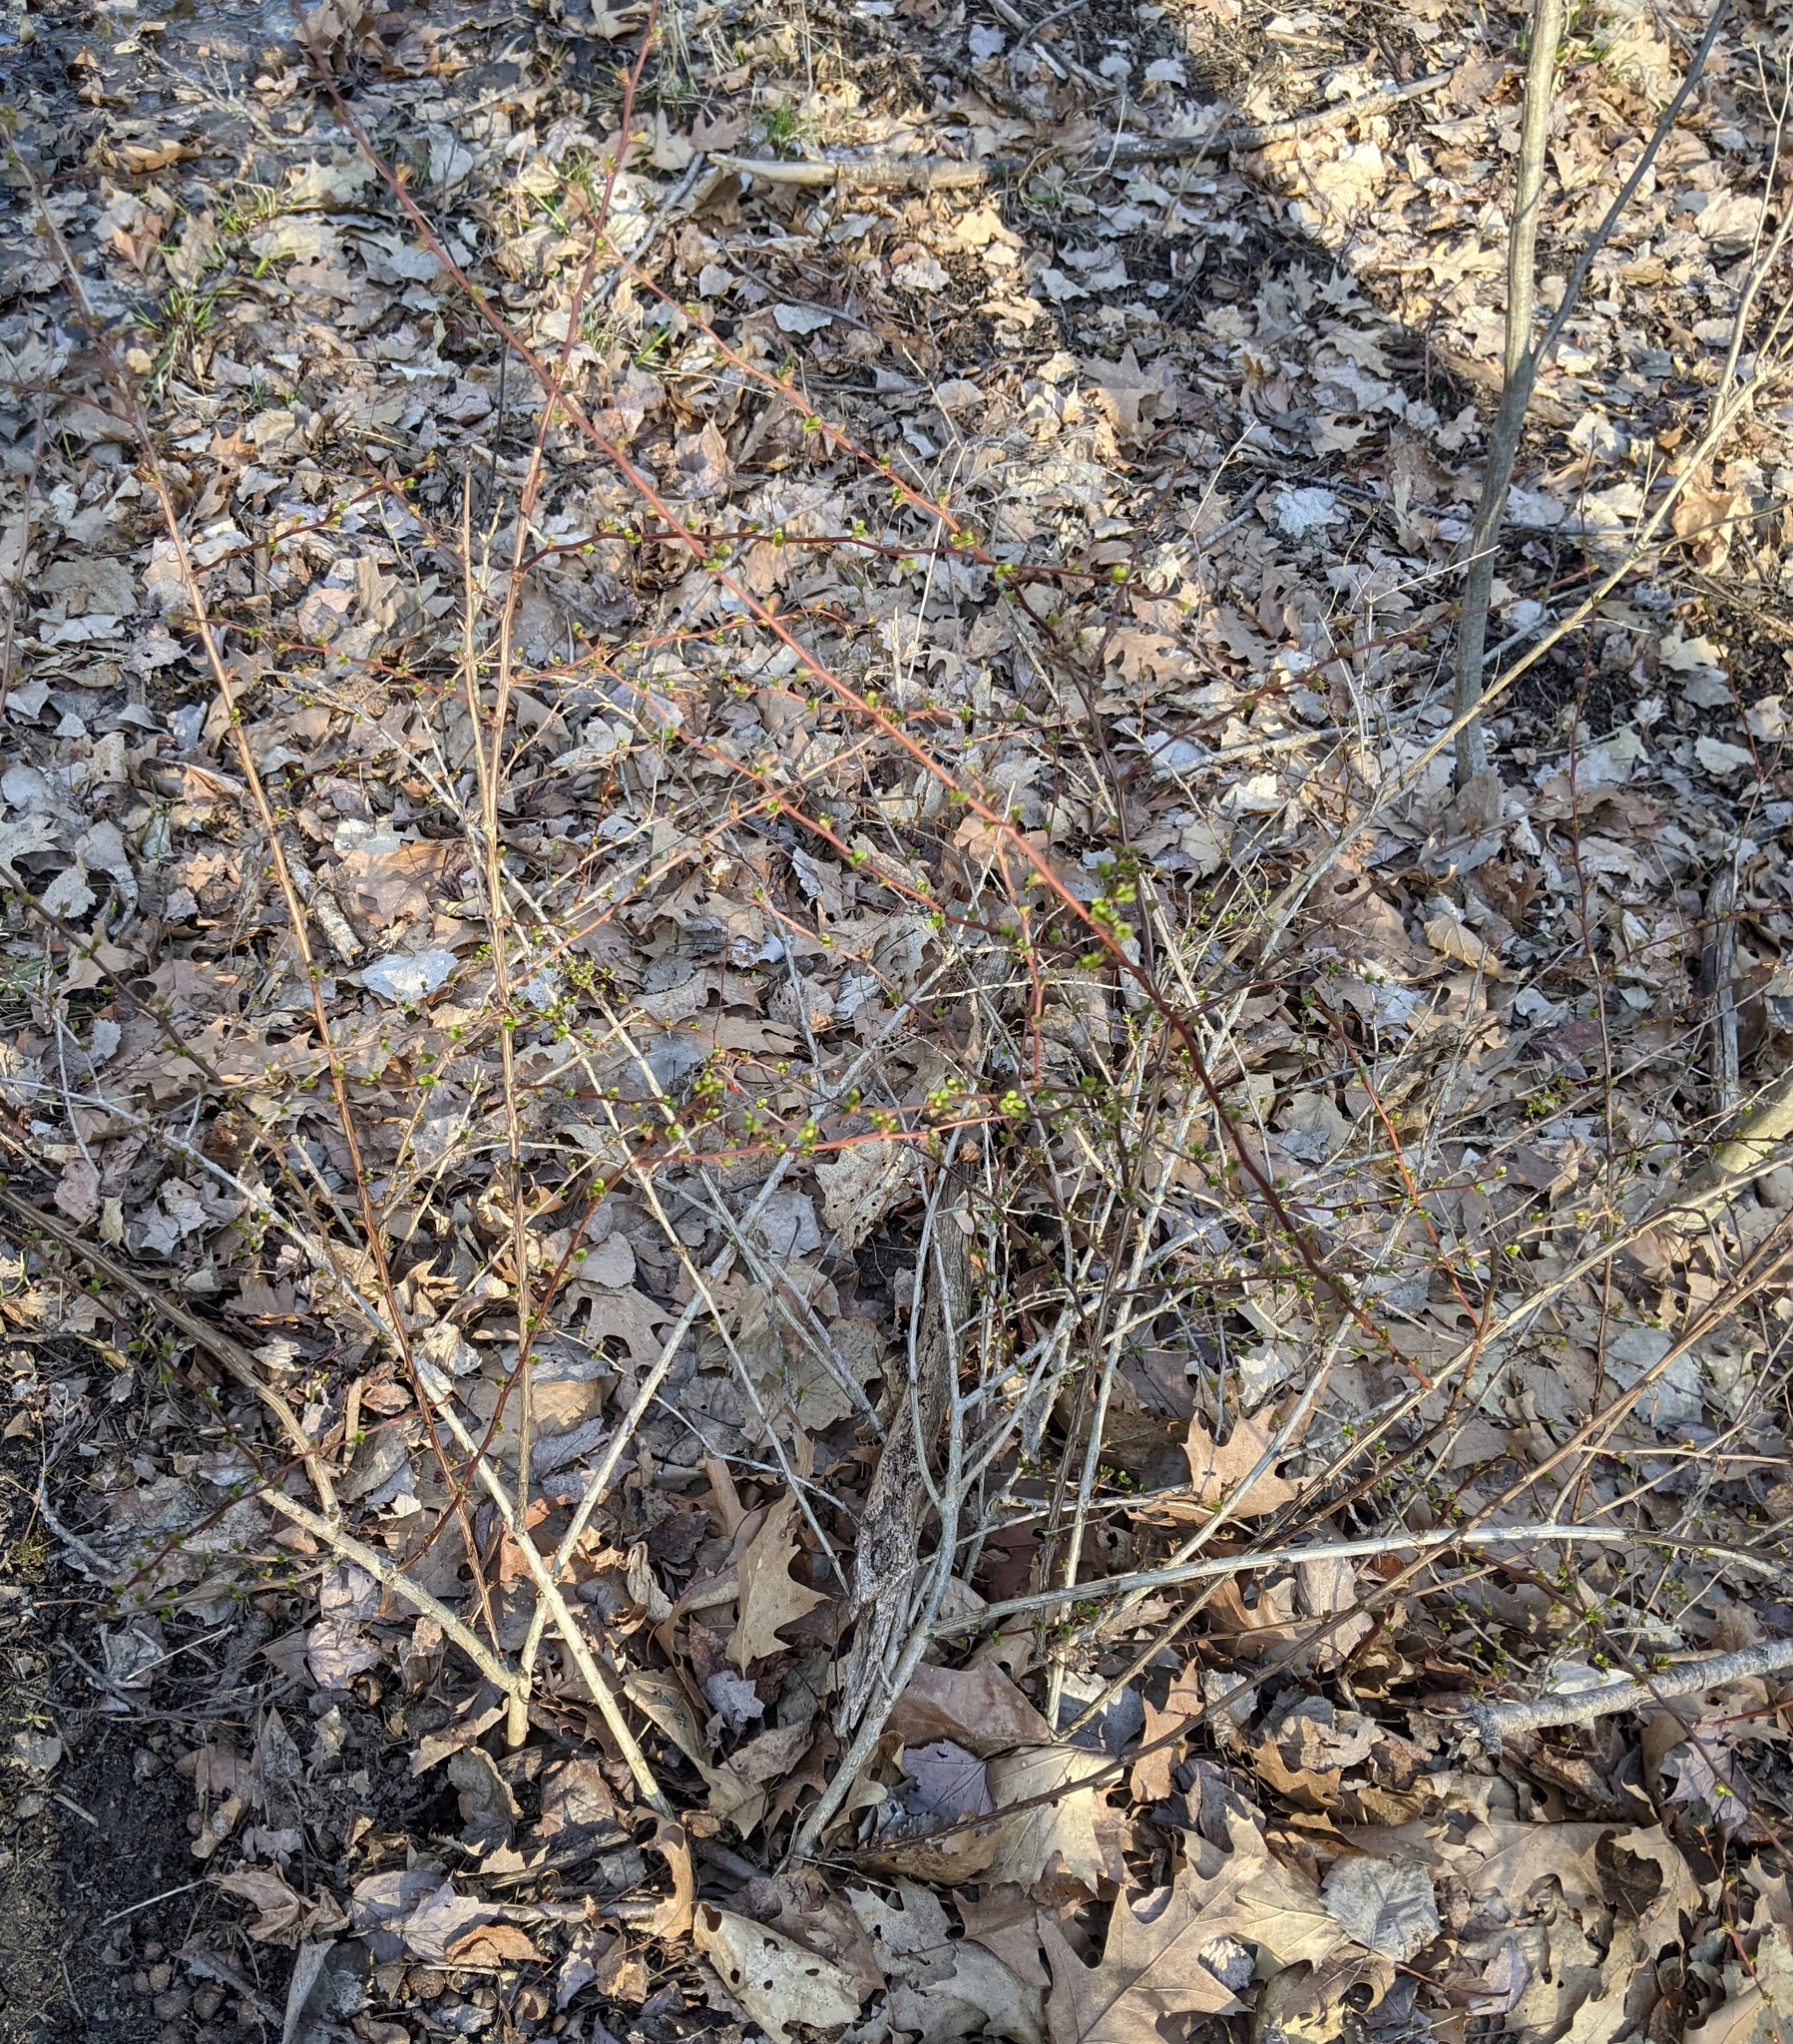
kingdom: Plantae
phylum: Tracheophyta
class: Magnoliopsida
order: Ranunculales
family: Berberidaceae
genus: Berberis
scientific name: Berberis thunbergii
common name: Japanese barberry
